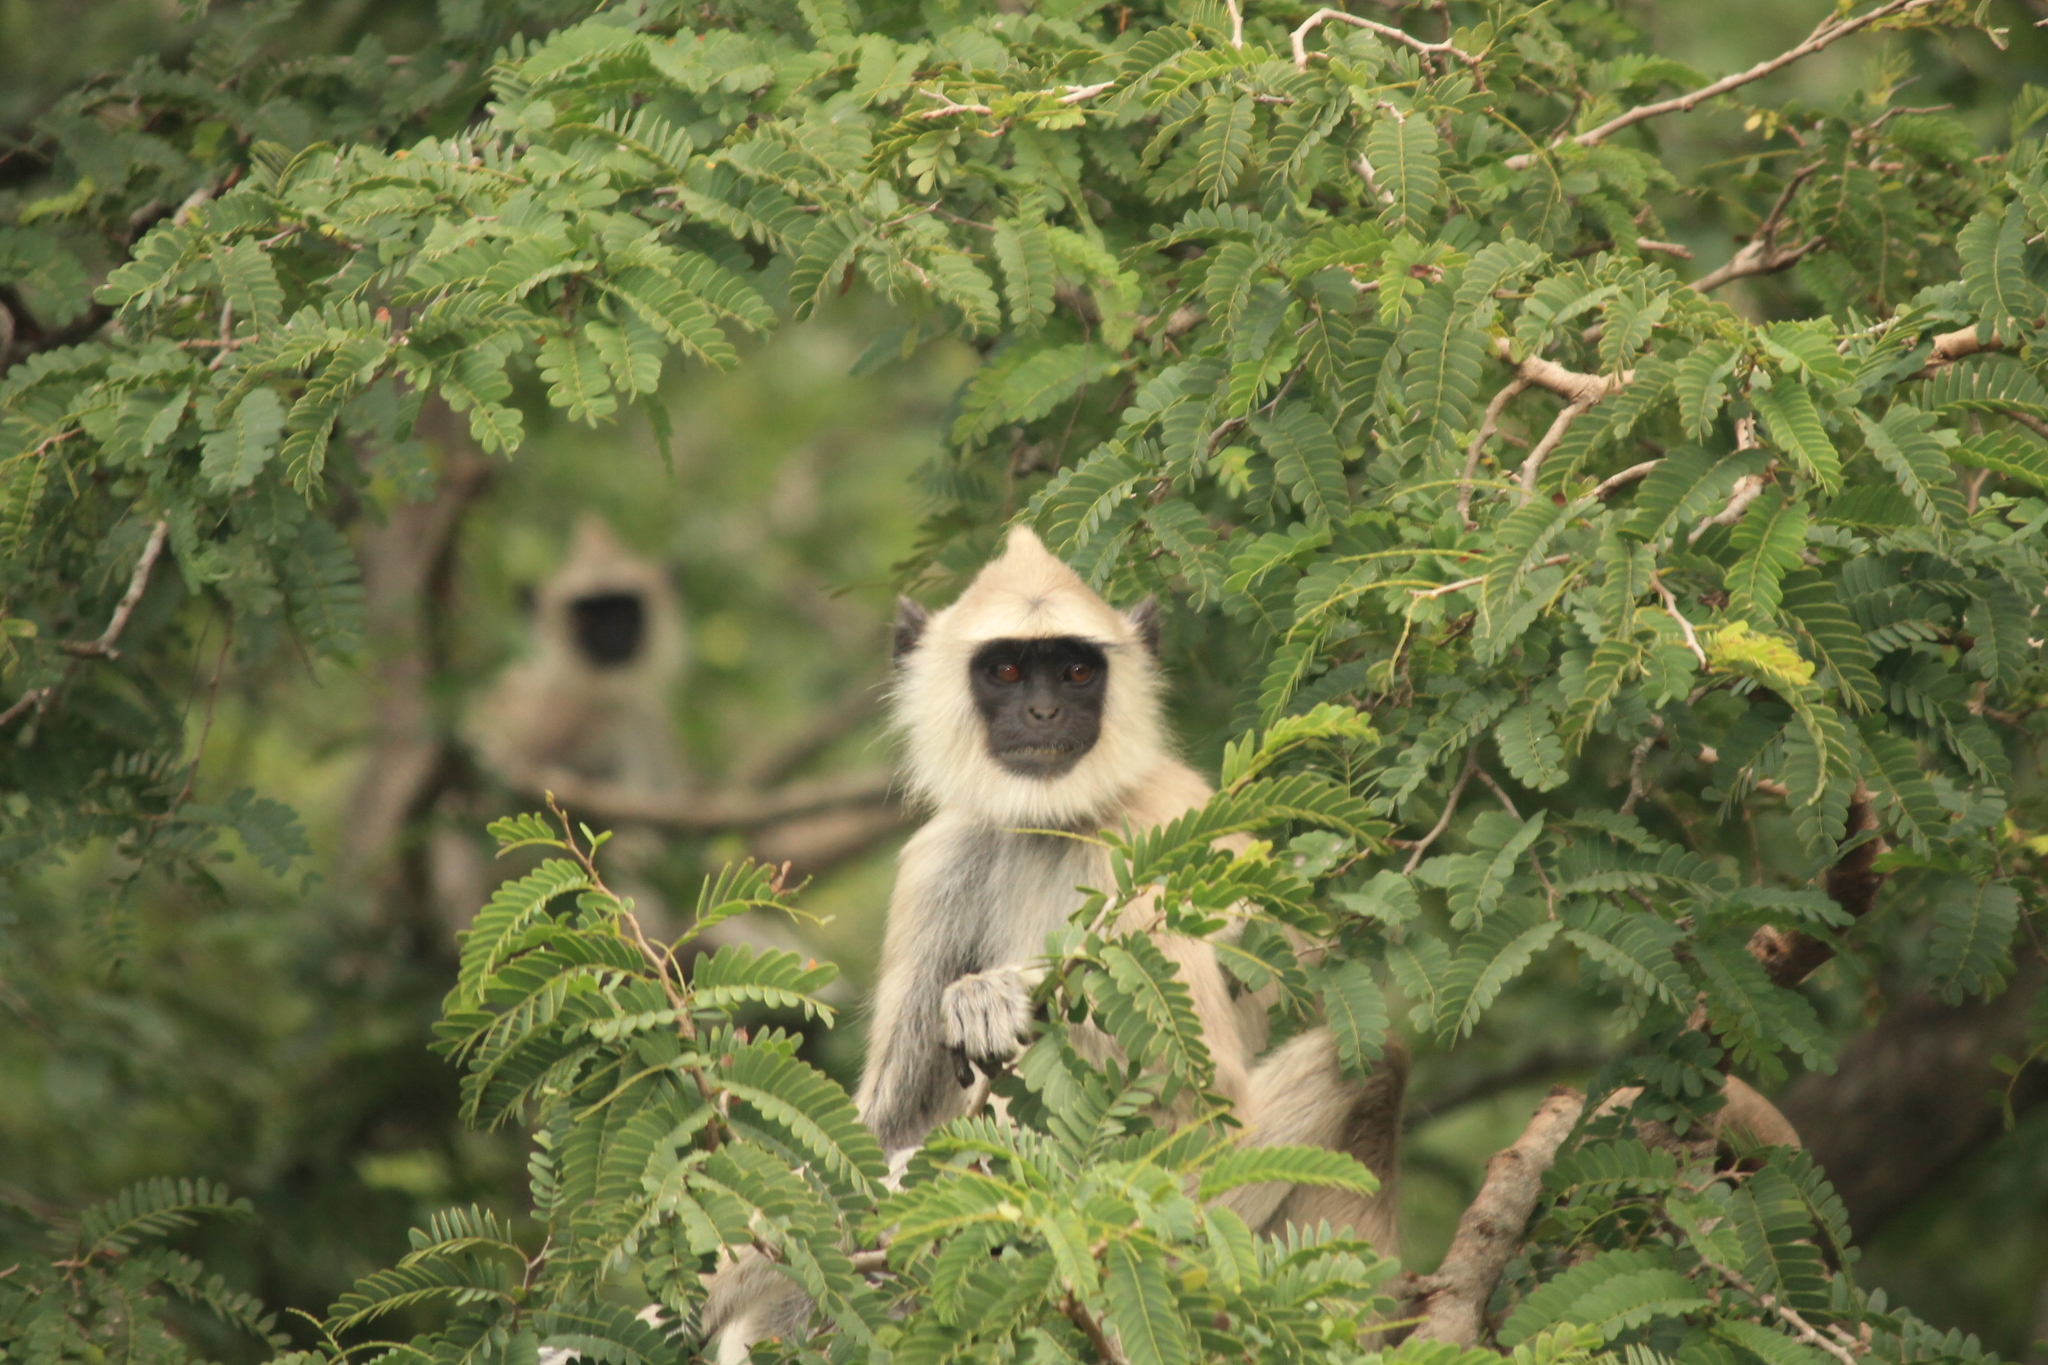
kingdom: Animalia
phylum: Chordata
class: Mammalia
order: Primates
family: Cercopithecidae
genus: Semnopithecus
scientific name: Semnopithecus priam
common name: Tufted gray langur
